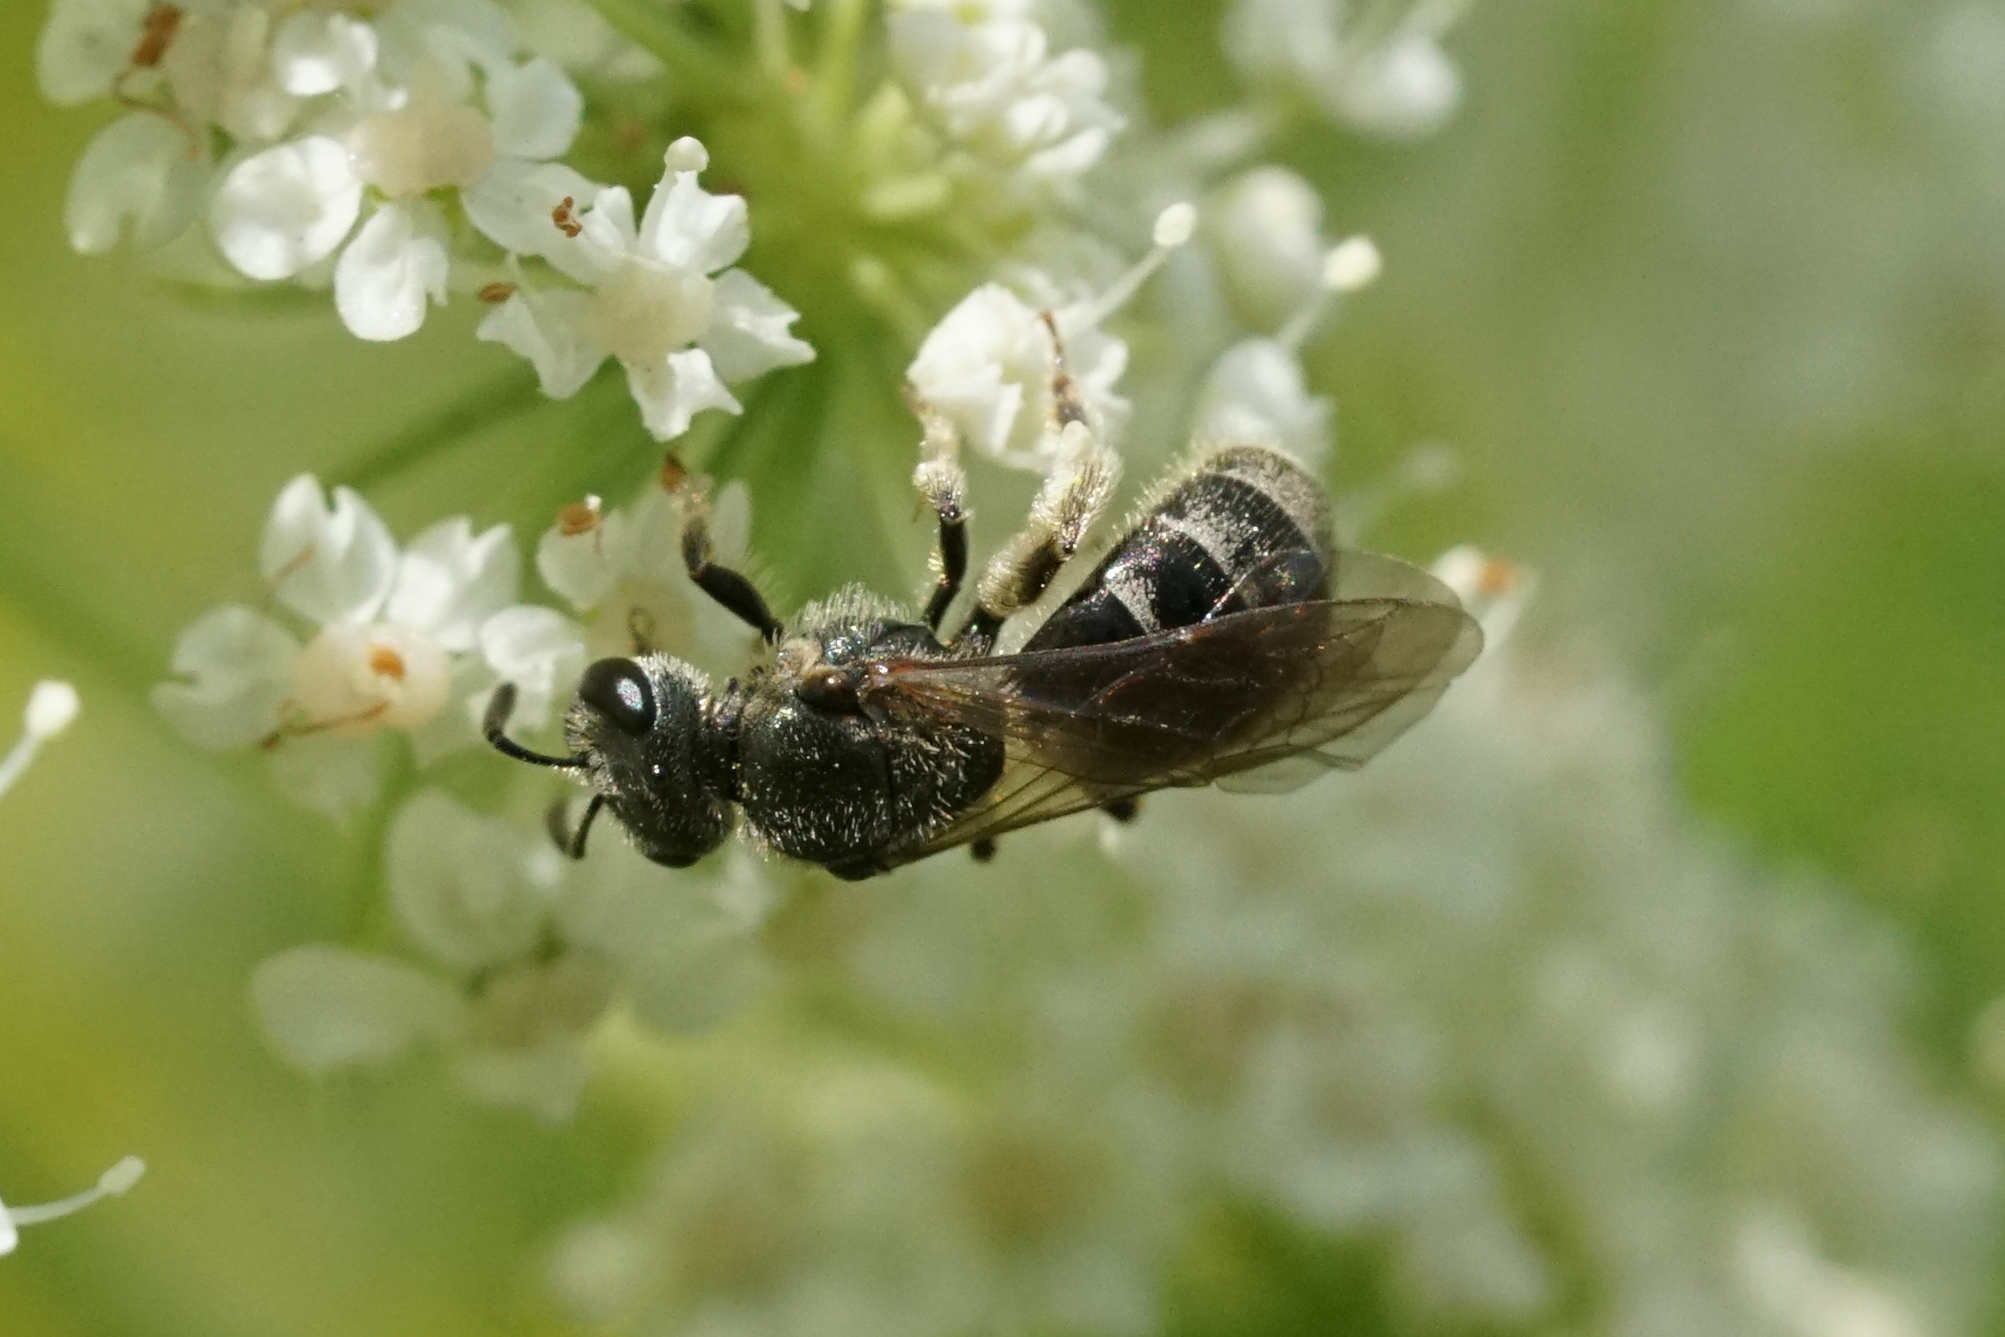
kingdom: Animalia
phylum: Arthropoda
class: Insecta
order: Hymenoptera
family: Halictidae
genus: Dialictus
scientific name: Dialictus
